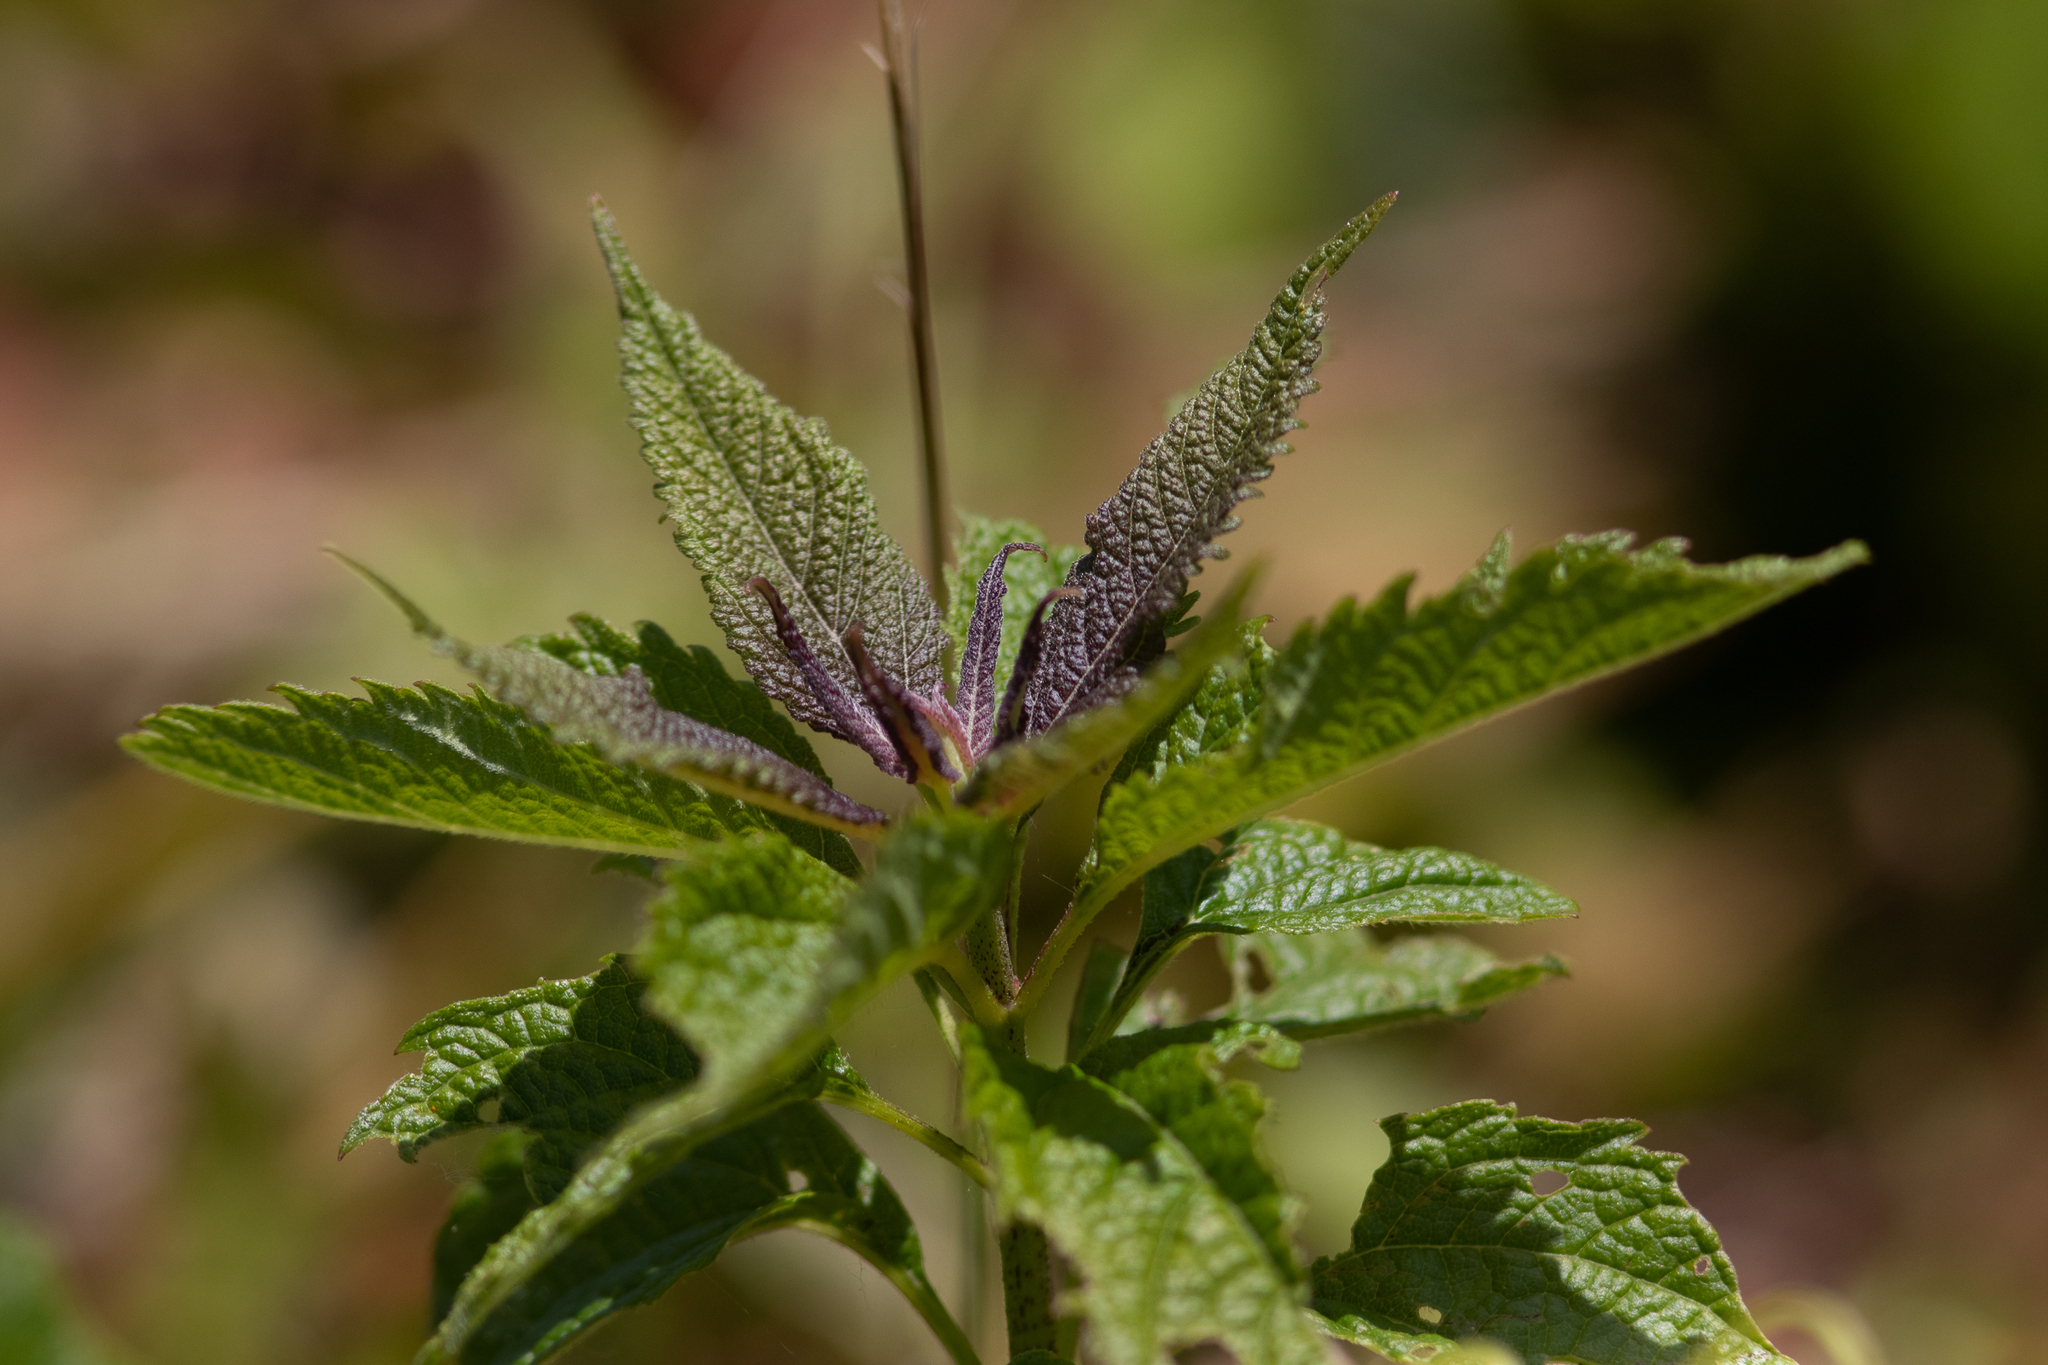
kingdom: Plantae
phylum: Tracheophyta
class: Magnoliopsida
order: Asterales
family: Asteraceae
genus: Eutrochium
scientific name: Eutrochium dubium
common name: Coastal plain joe pye weed
